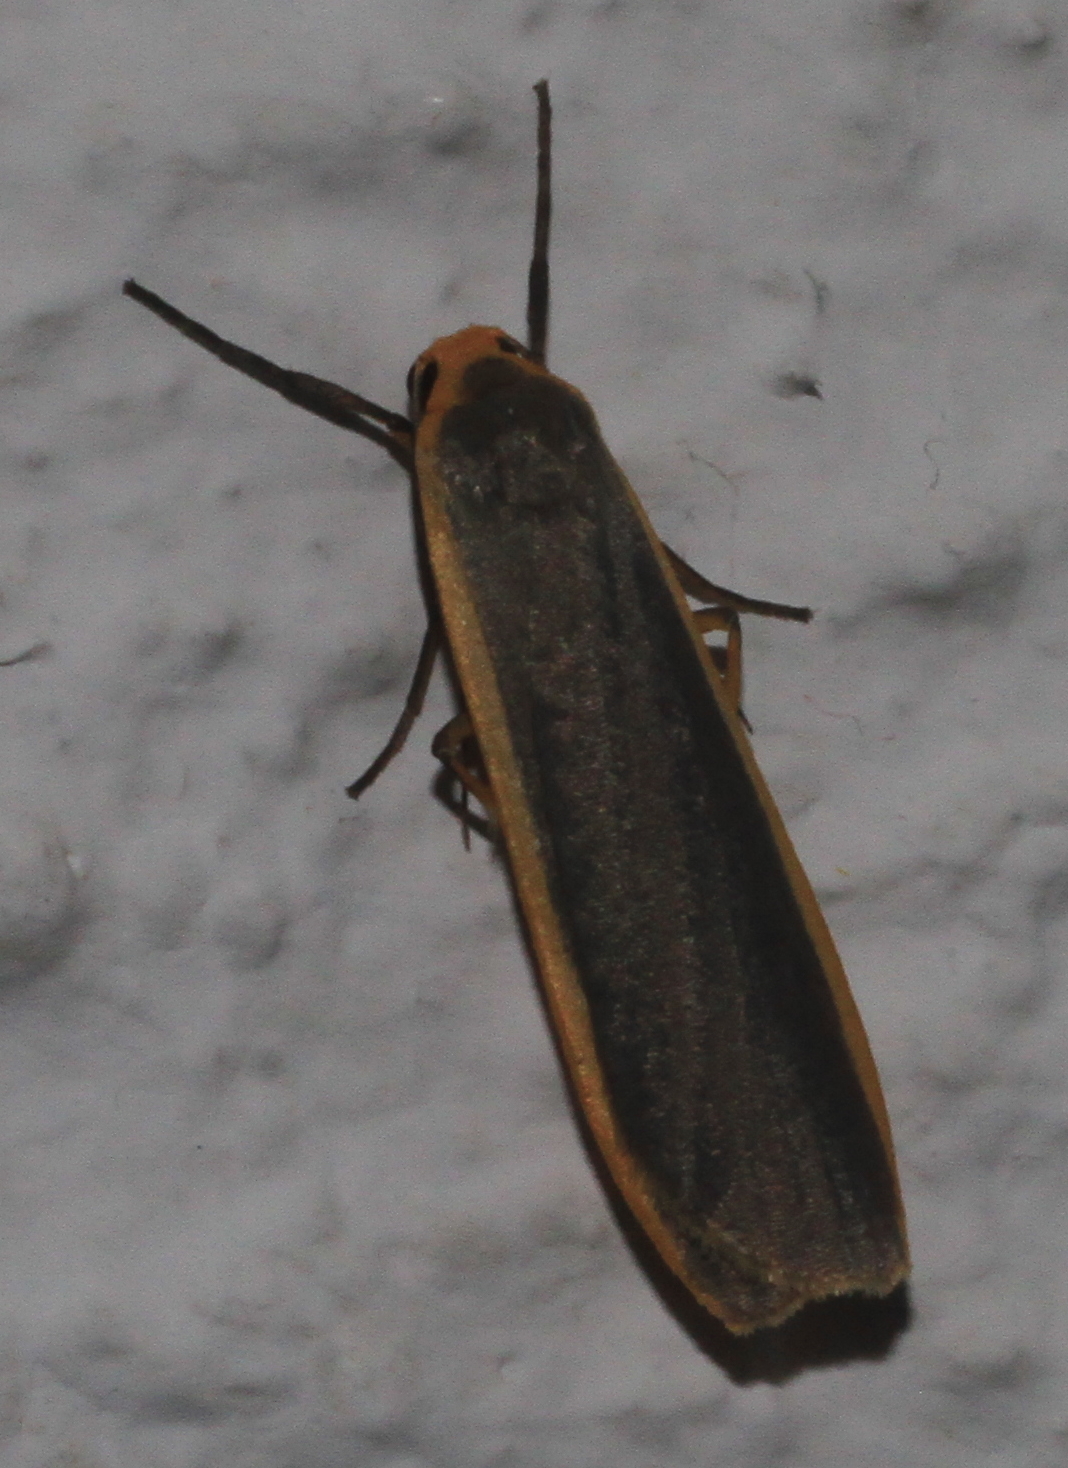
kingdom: Animalia
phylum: Arthropoda
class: Insecta
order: Lepidoptera
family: Erebidae
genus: Nyea
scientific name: Nyea lurideola
